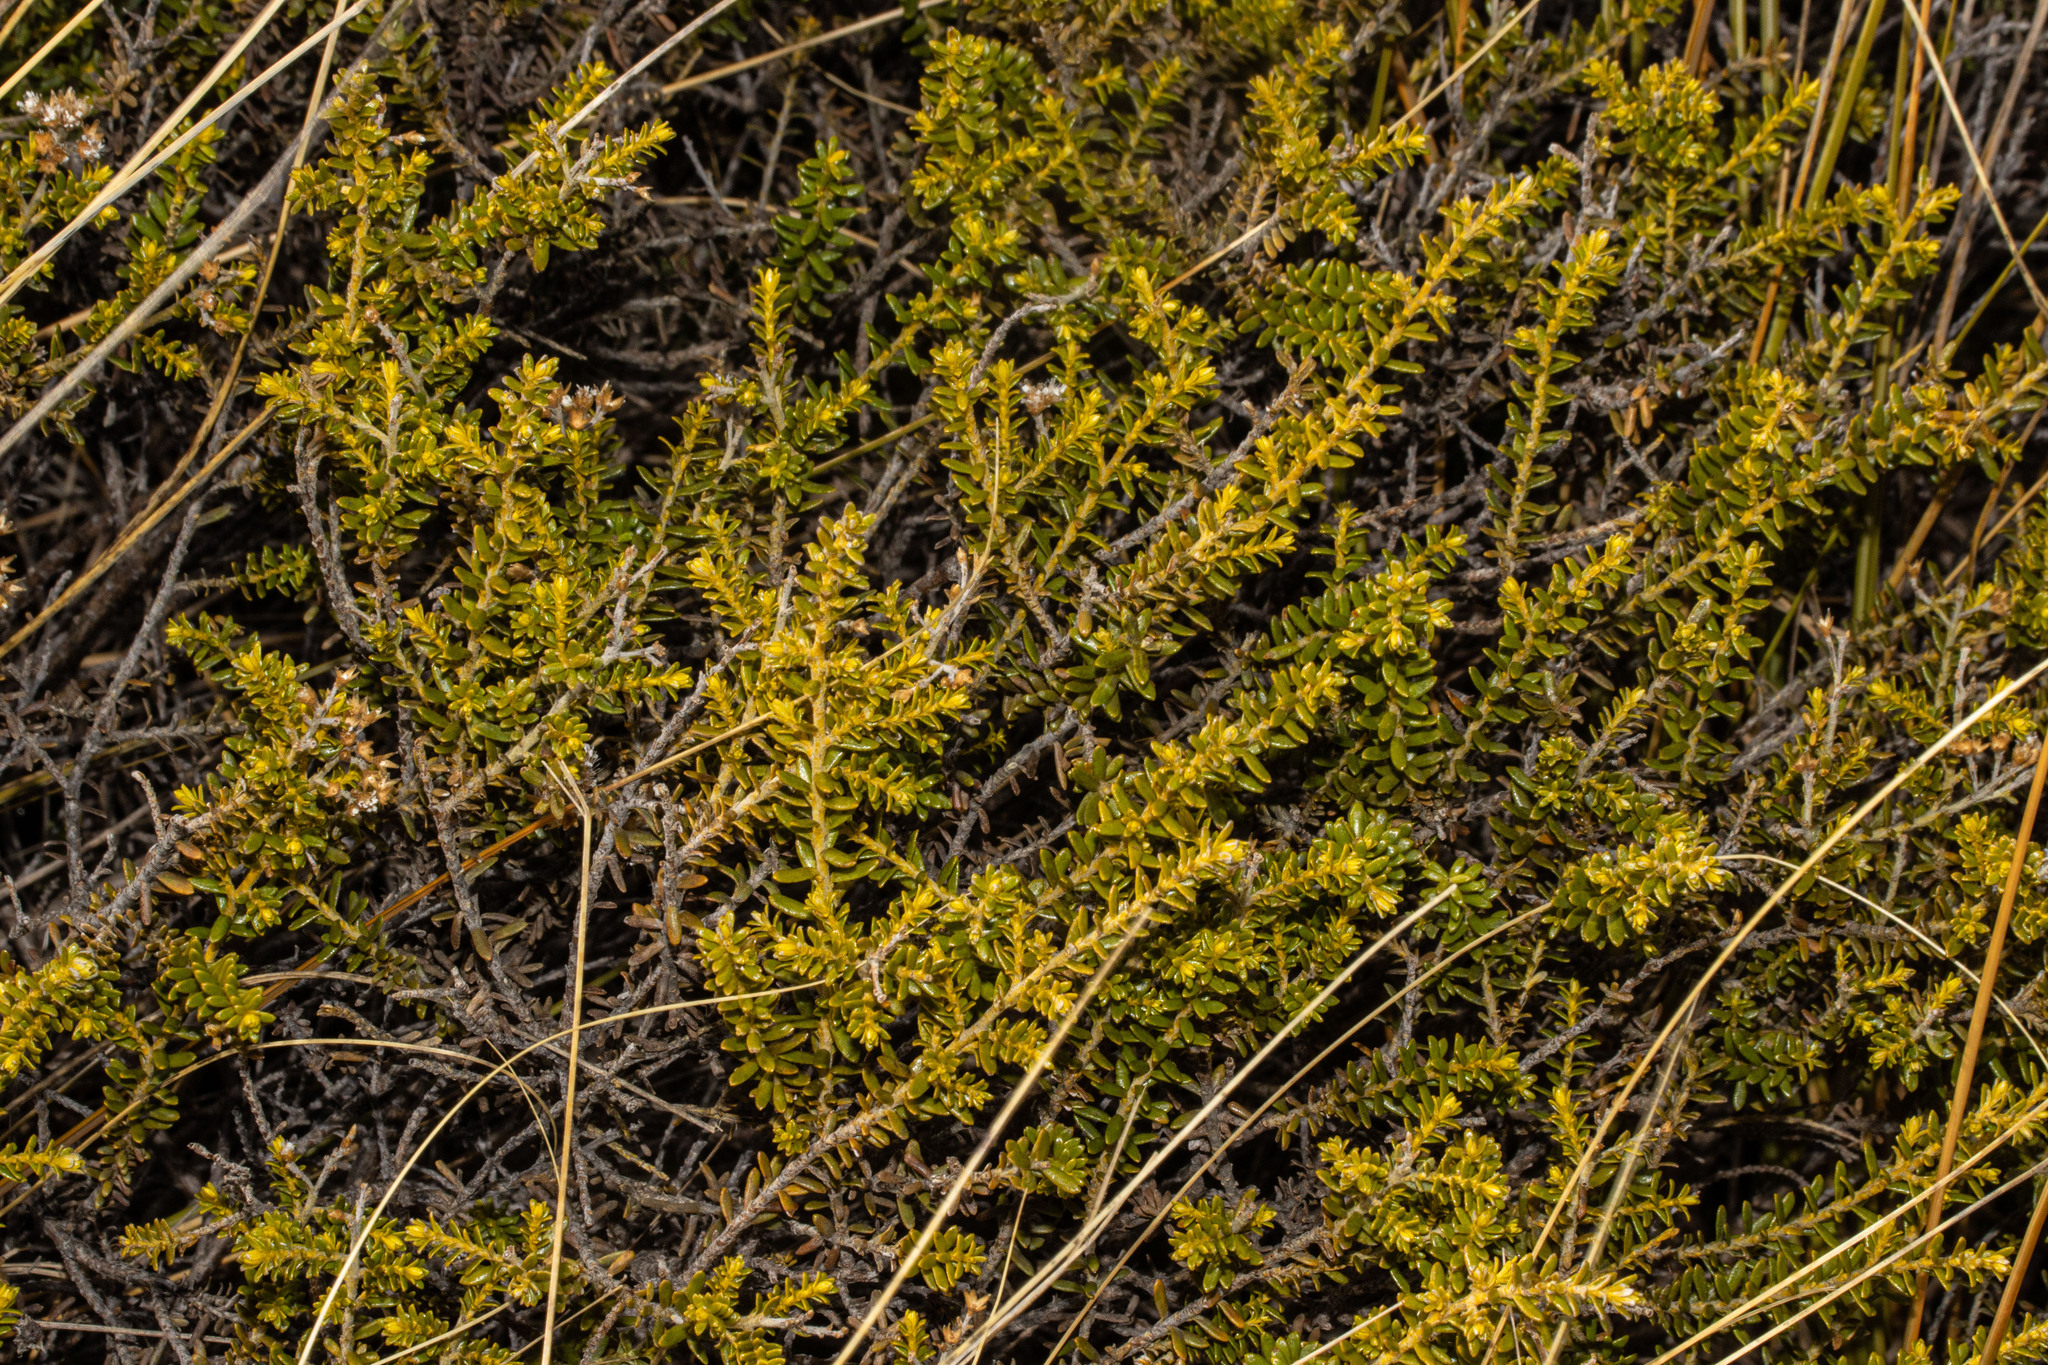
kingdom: Plantae
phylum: Tracheophyta
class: Magnoliopsida
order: Asterales
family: Asteraceae
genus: Ozothamnus
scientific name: Ozothamnus leptophyllus
